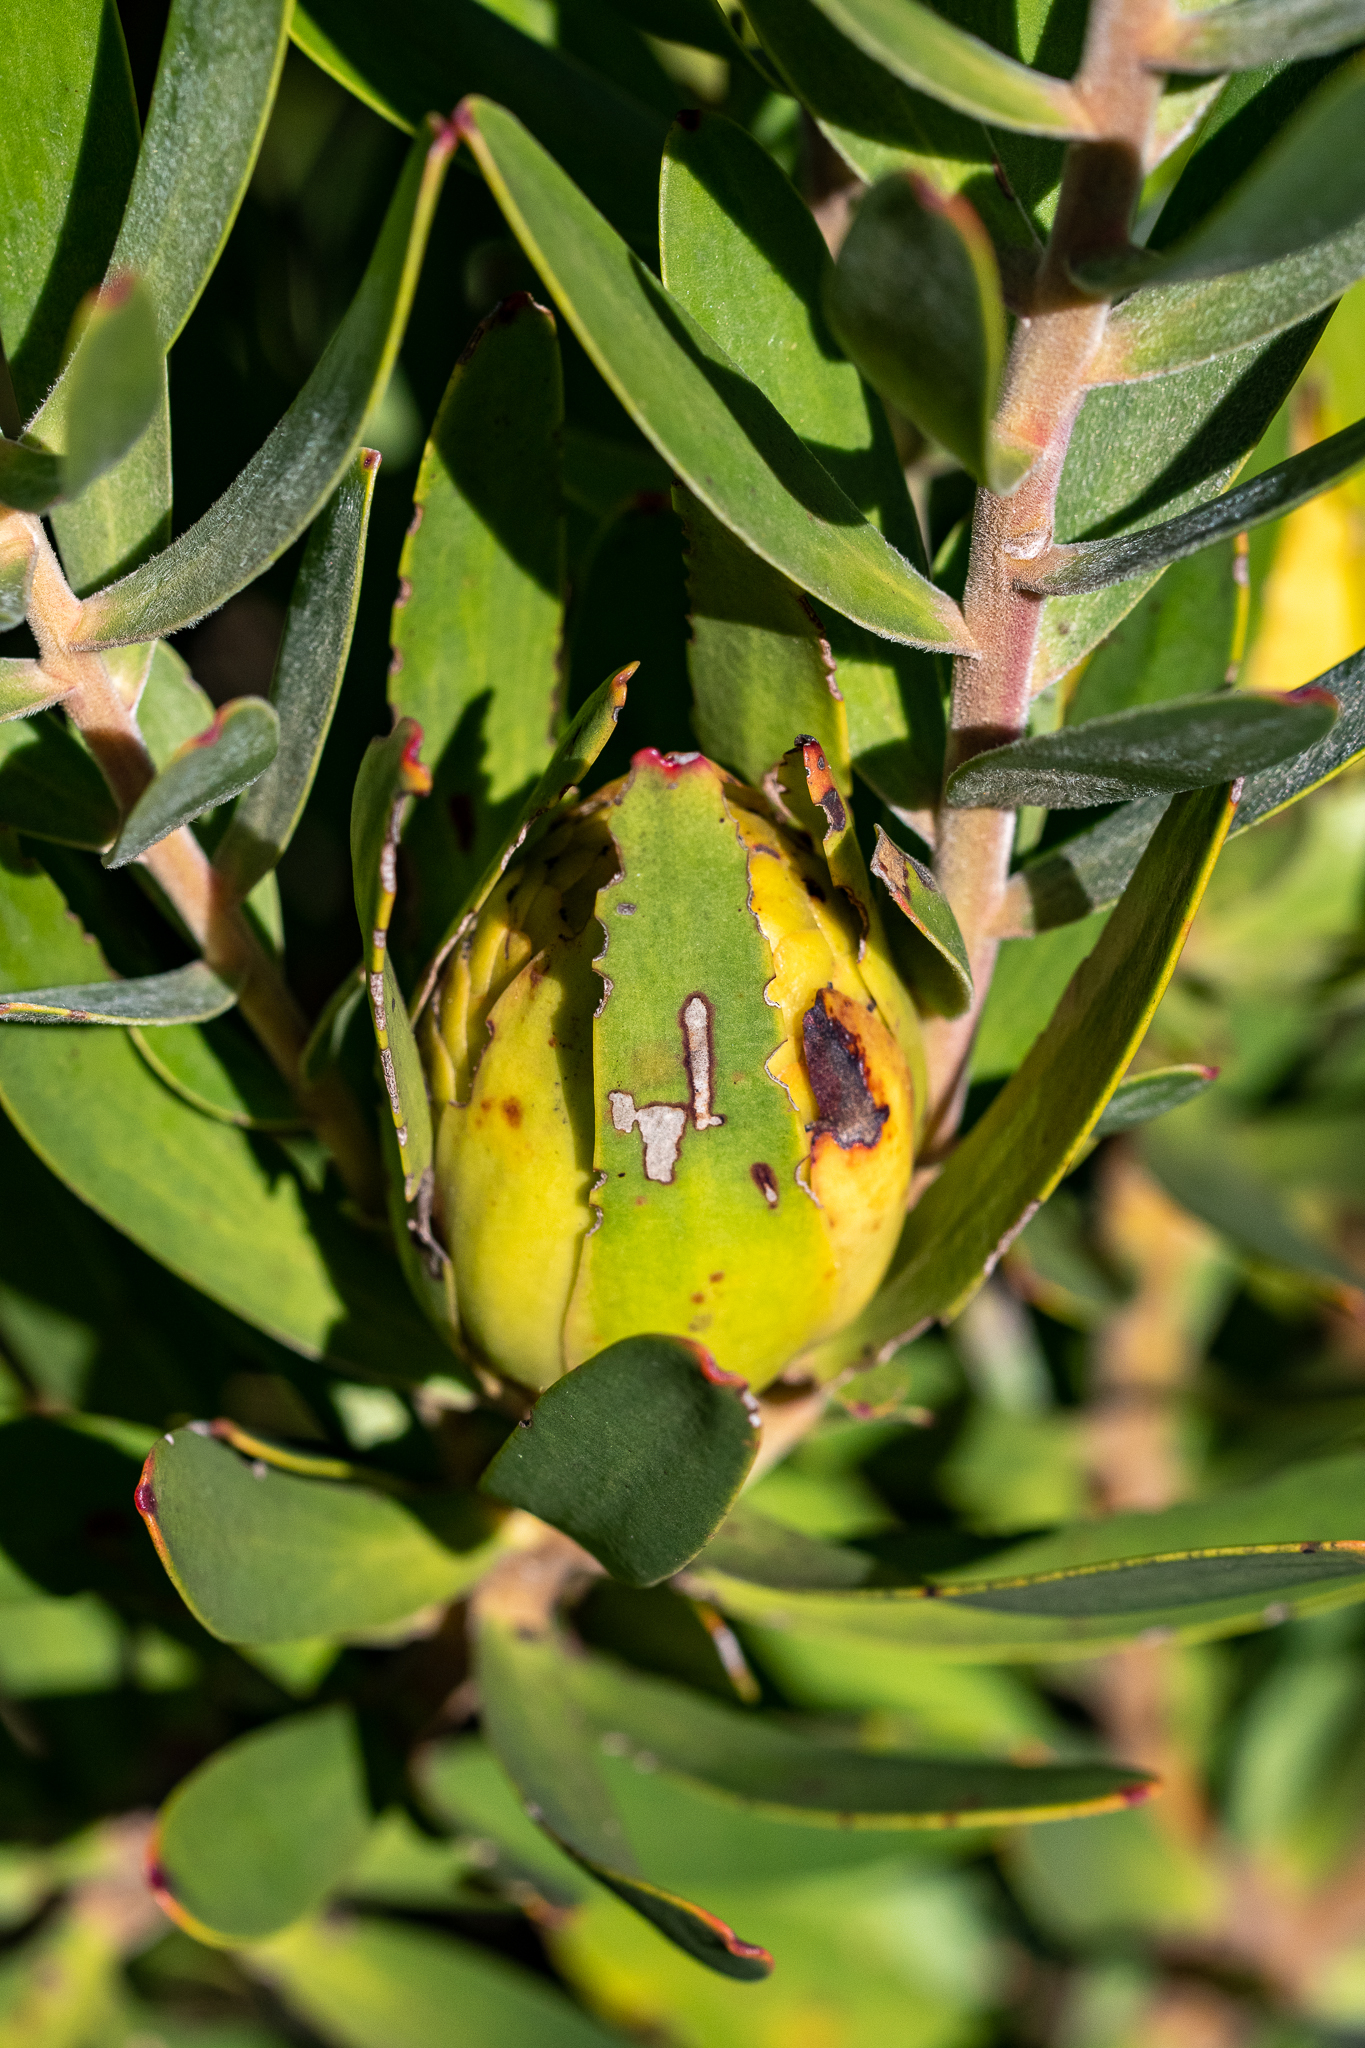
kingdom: Plantae
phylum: Tracheophyta
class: Magnoliopsida
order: Proteales
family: Proteaceae
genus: Leucadendron
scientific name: Leucadendron laureolum
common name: Golden sunshinebush
